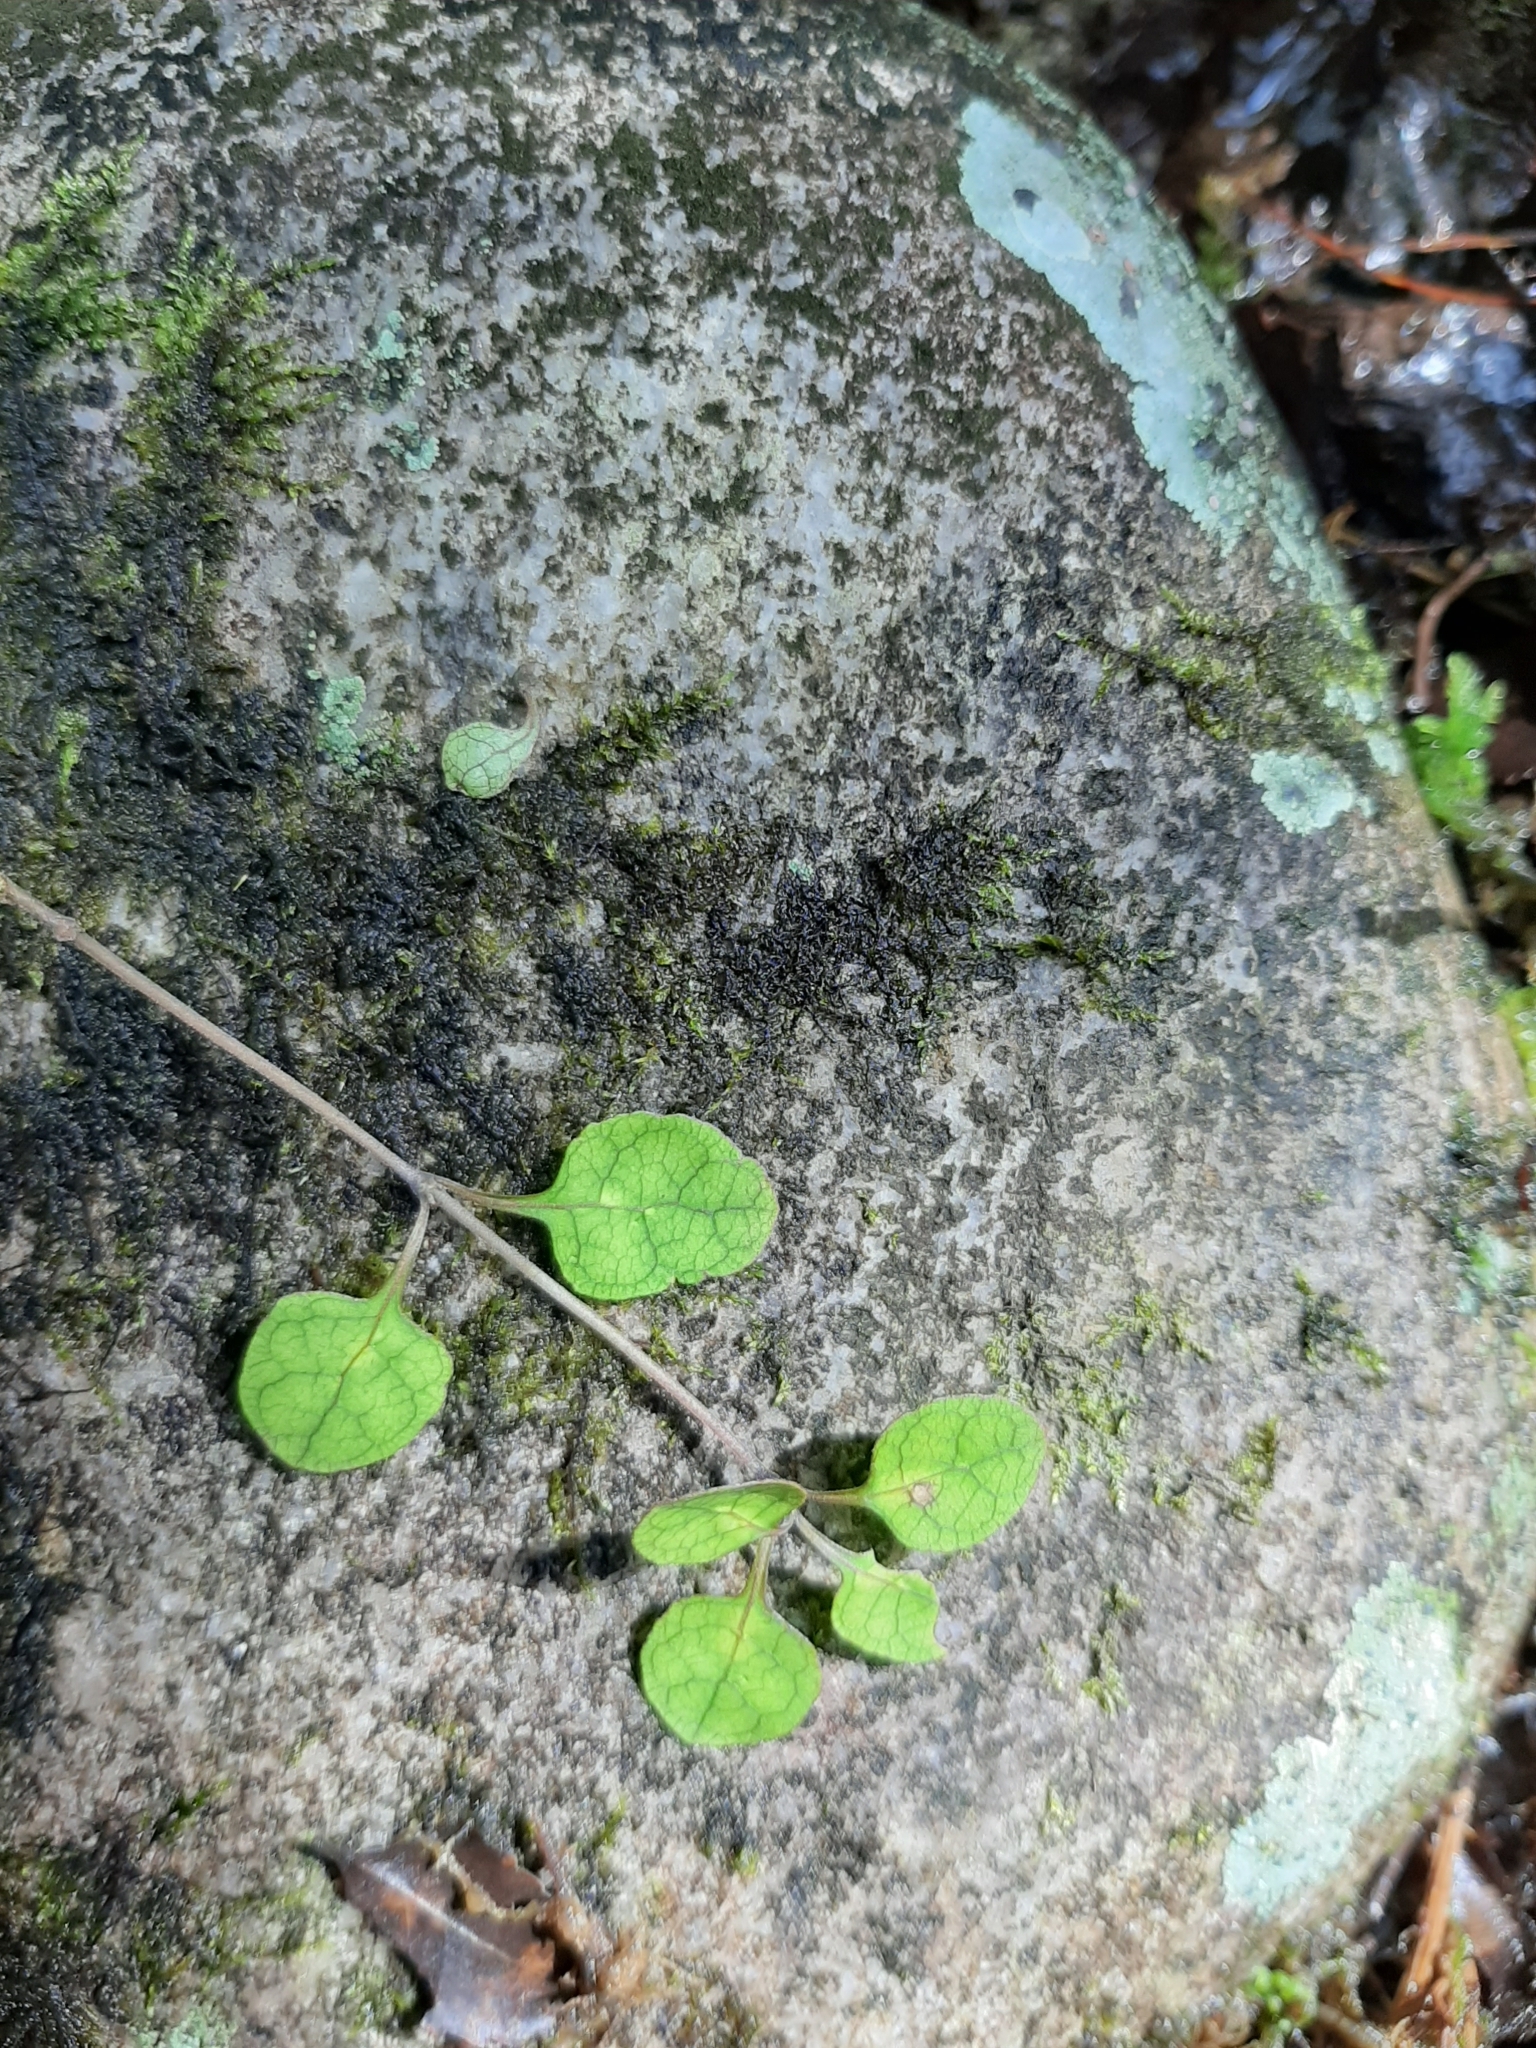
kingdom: Plantae
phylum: Tracheophyta
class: Magnoliopsida
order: Gentianales
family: Rubiaceae
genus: Coprosma
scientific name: Coprosma tenuicaulis
